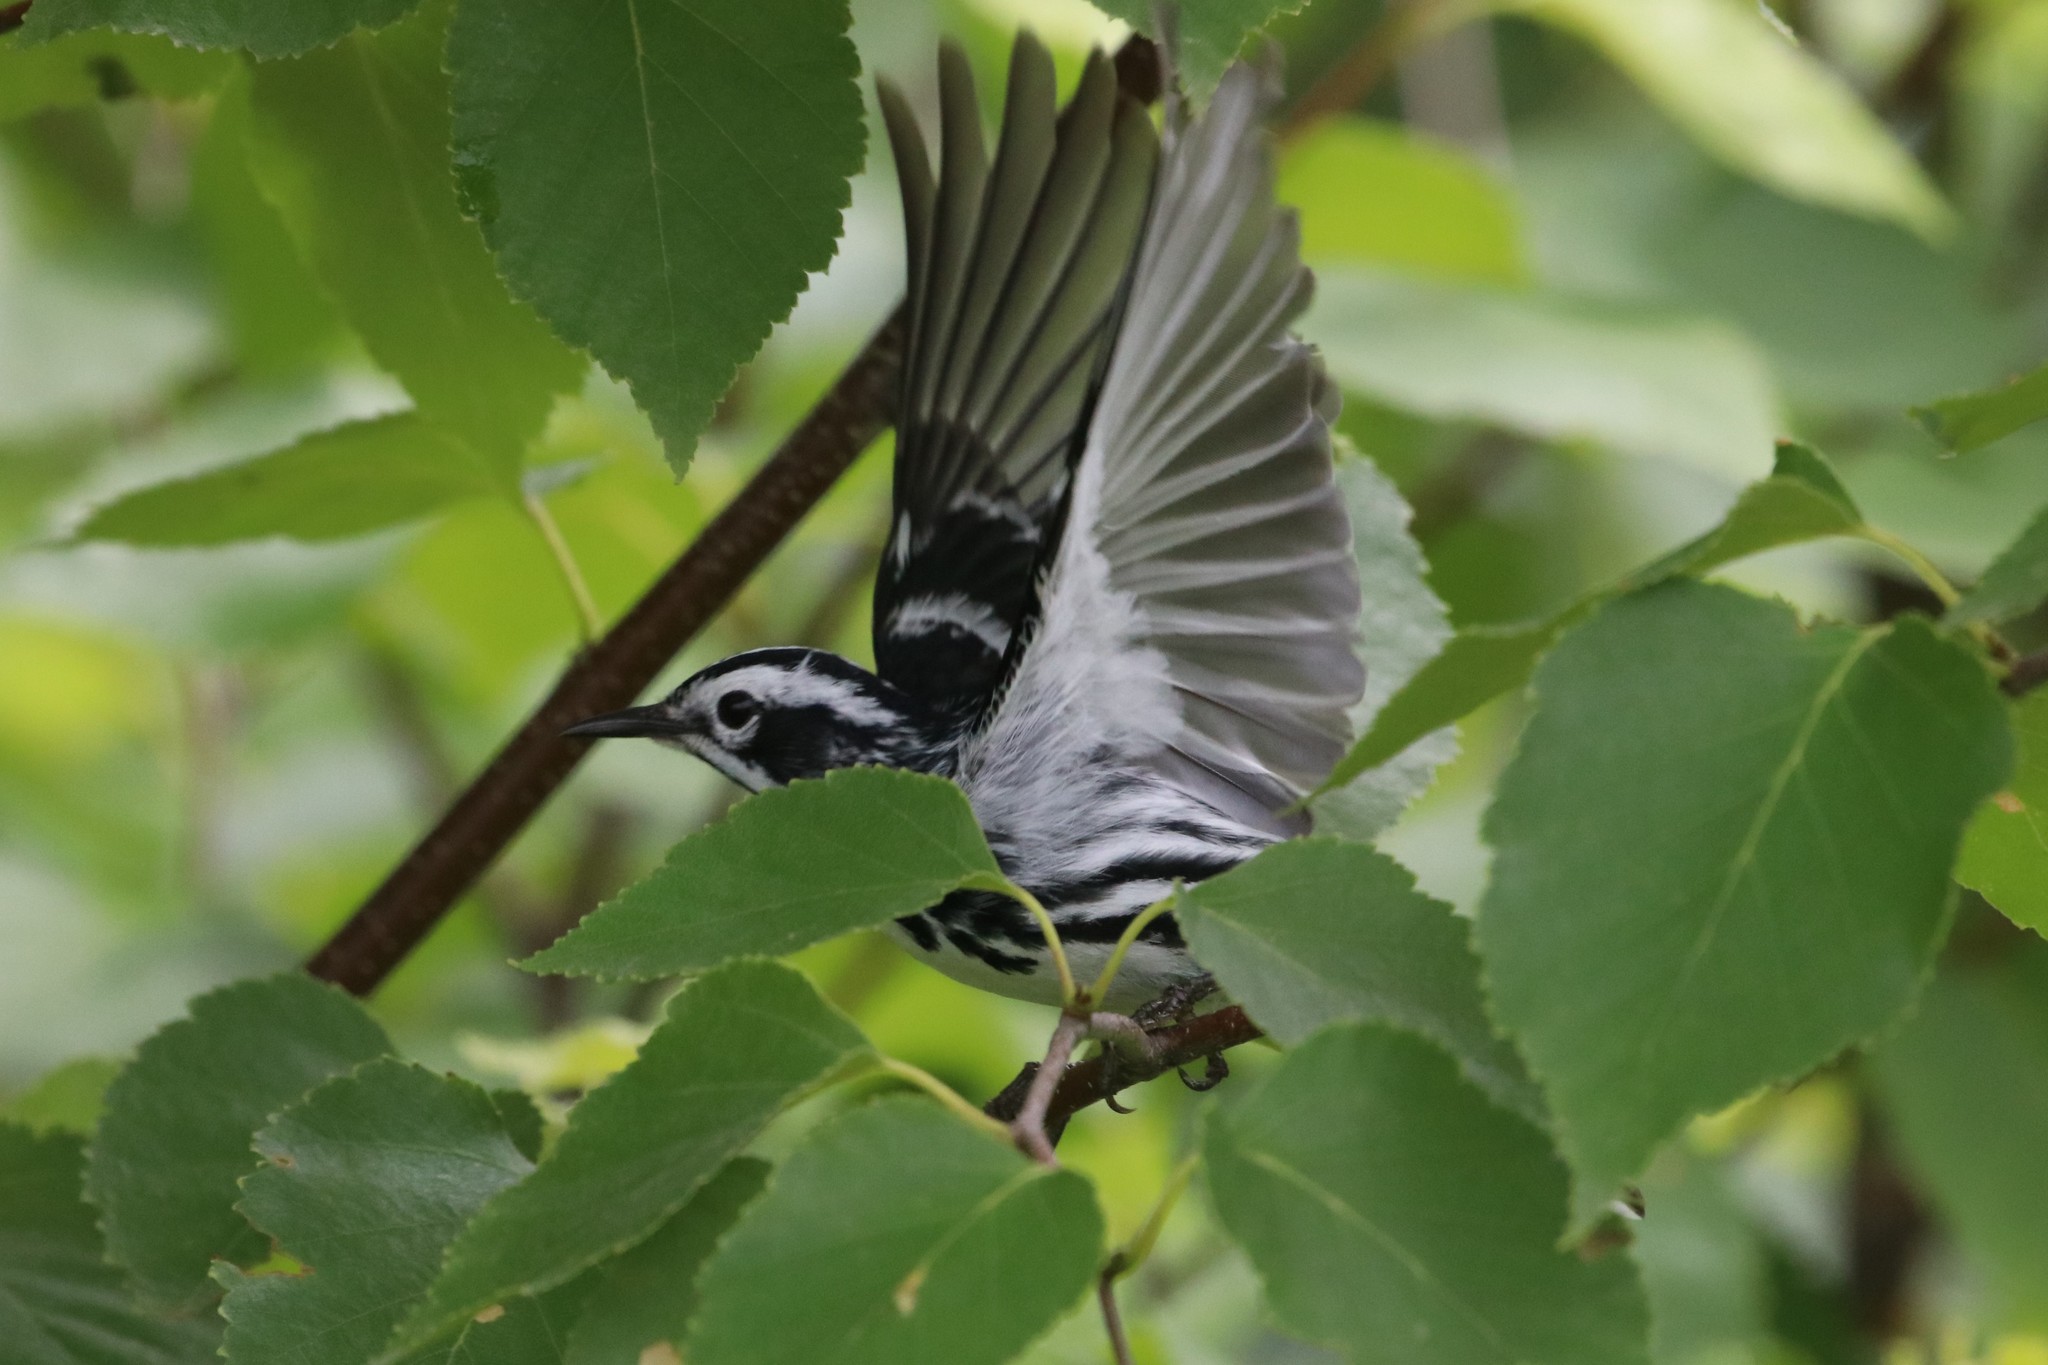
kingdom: Animalia
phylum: Chordata
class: Aves
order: Passeriformes
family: Parulidae
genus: Mniotilta
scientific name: Mniotilta varia
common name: Black-and-white warbler
